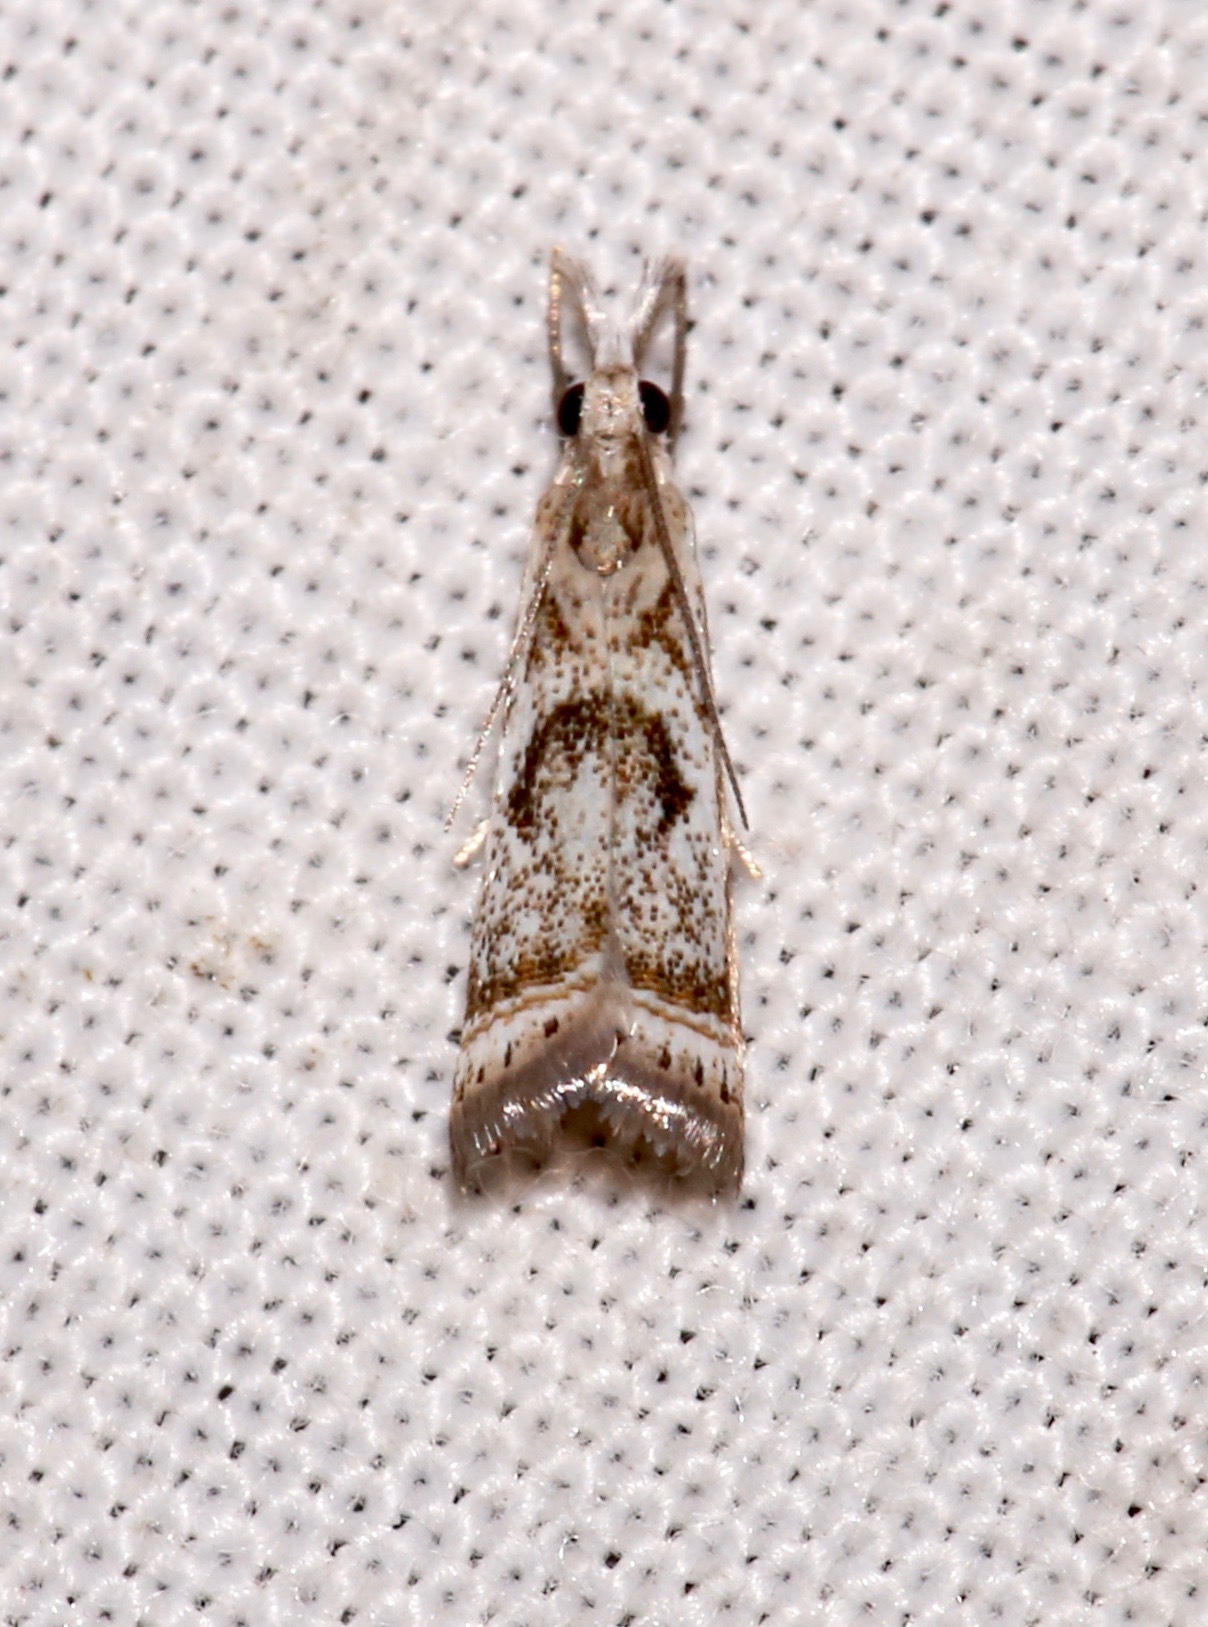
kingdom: Animalia
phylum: Arthropoda
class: Insecta
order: Lepidoptera
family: Crambidae
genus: Microcrambus
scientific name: Microcrambus elegans
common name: Elegant grass-veneer
